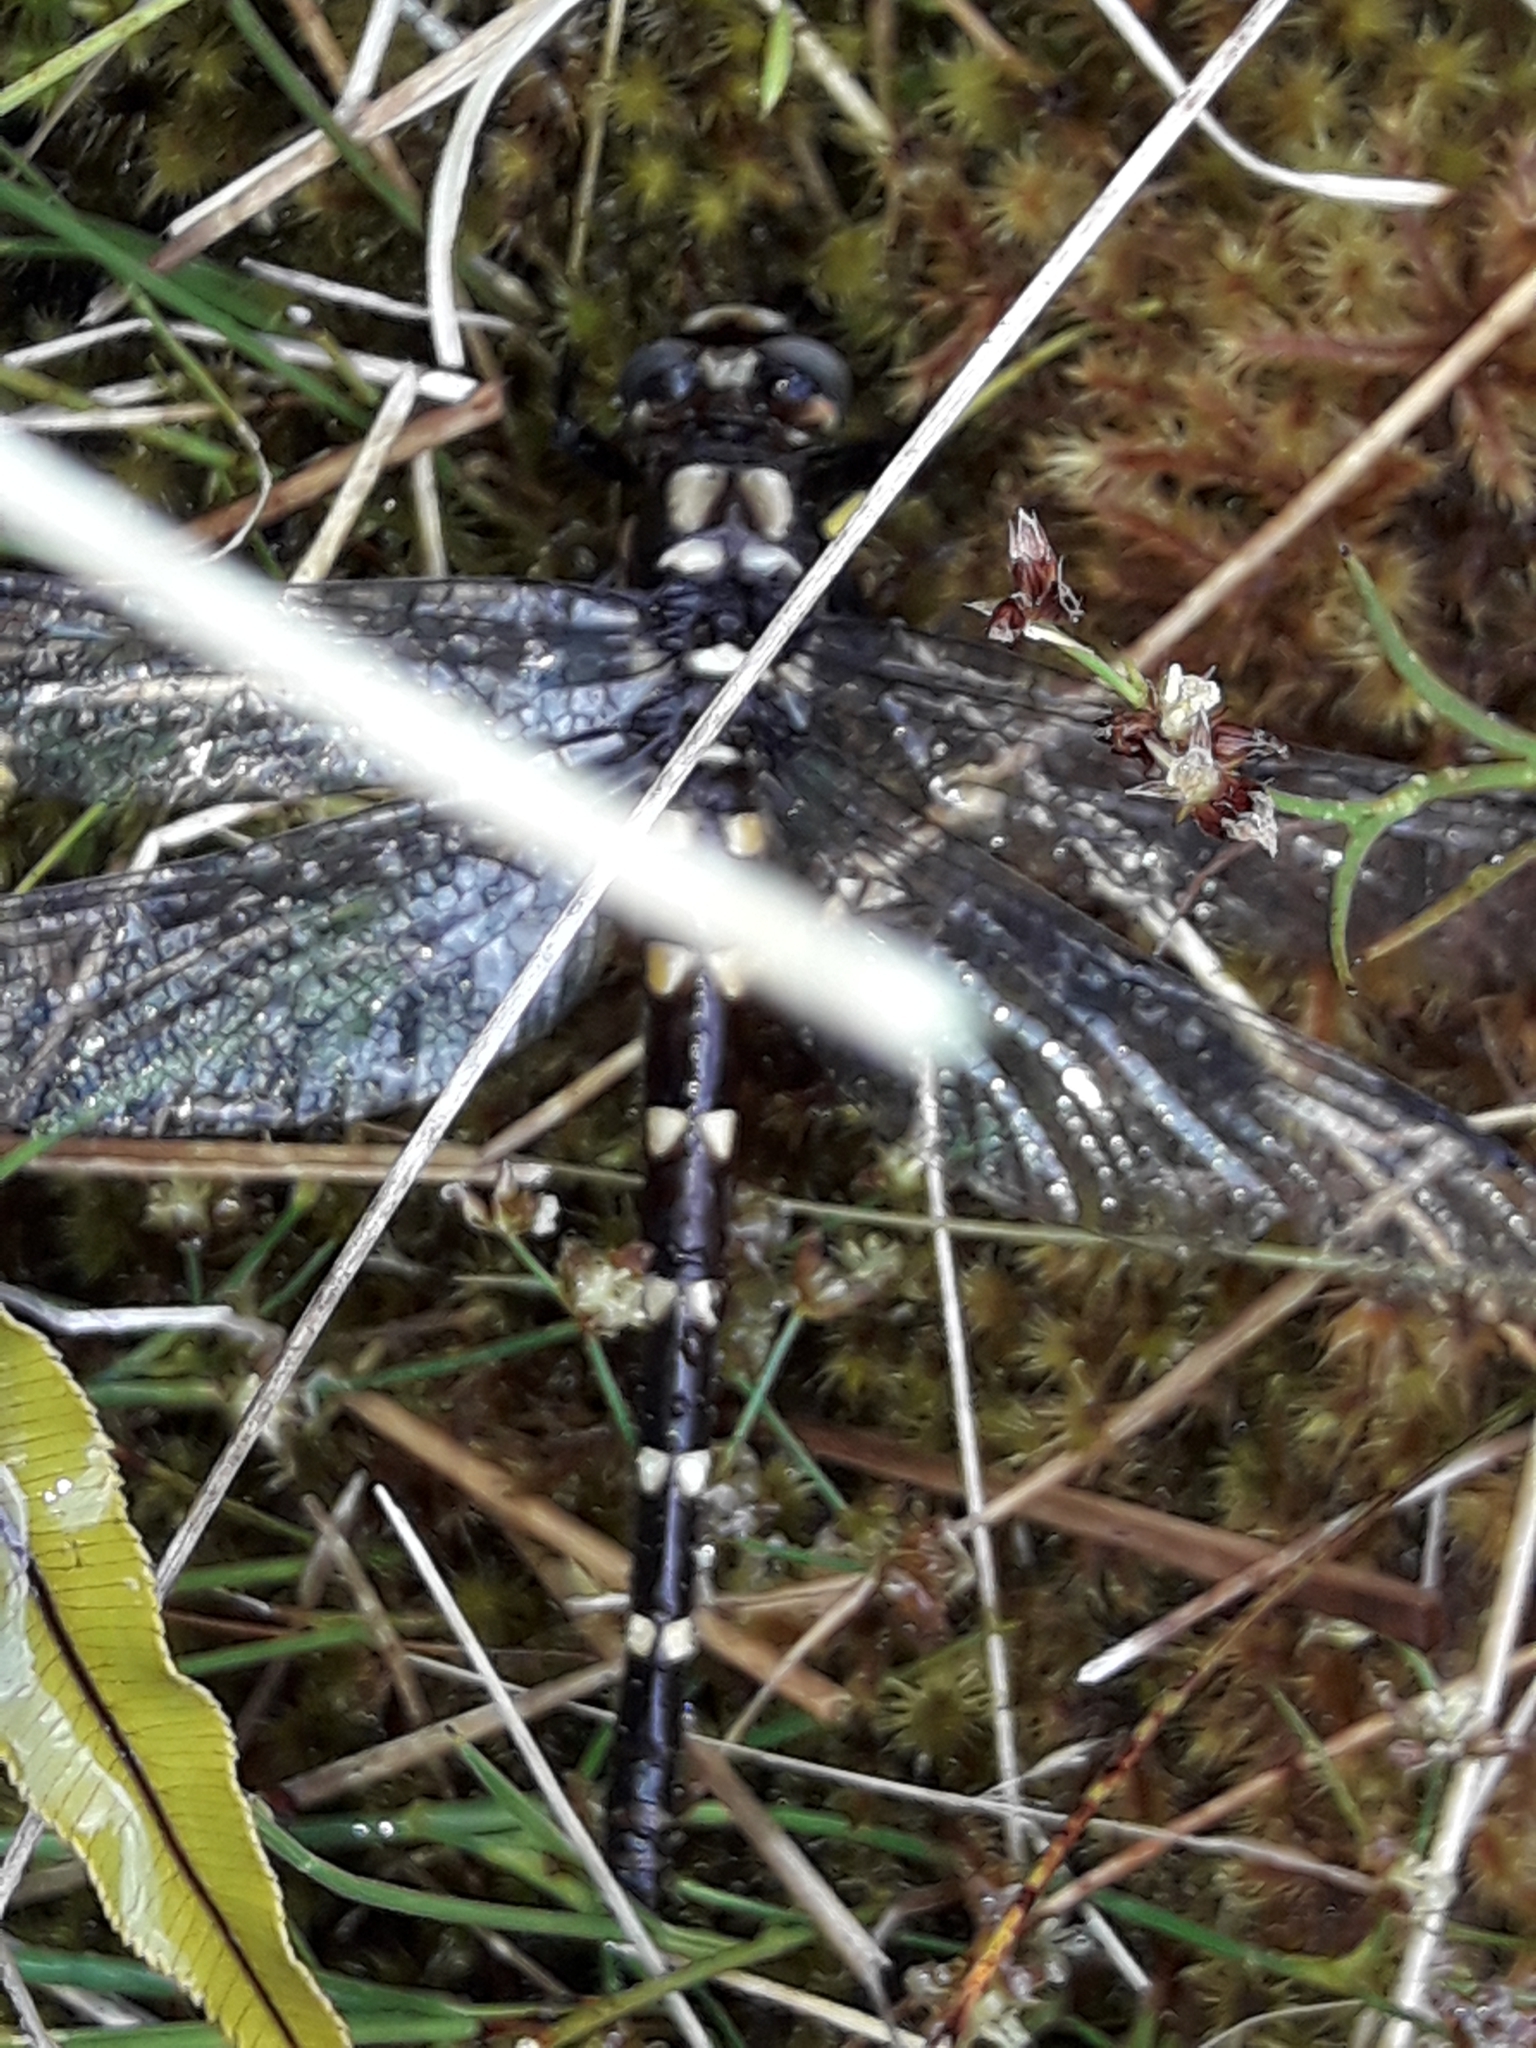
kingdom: Animalia
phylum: Arthropoda
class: Insecta
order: Odonata
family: Petaluridae
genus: Uropetala
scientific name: Uropetala chiltoni
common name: Mountain giant dragonfly
